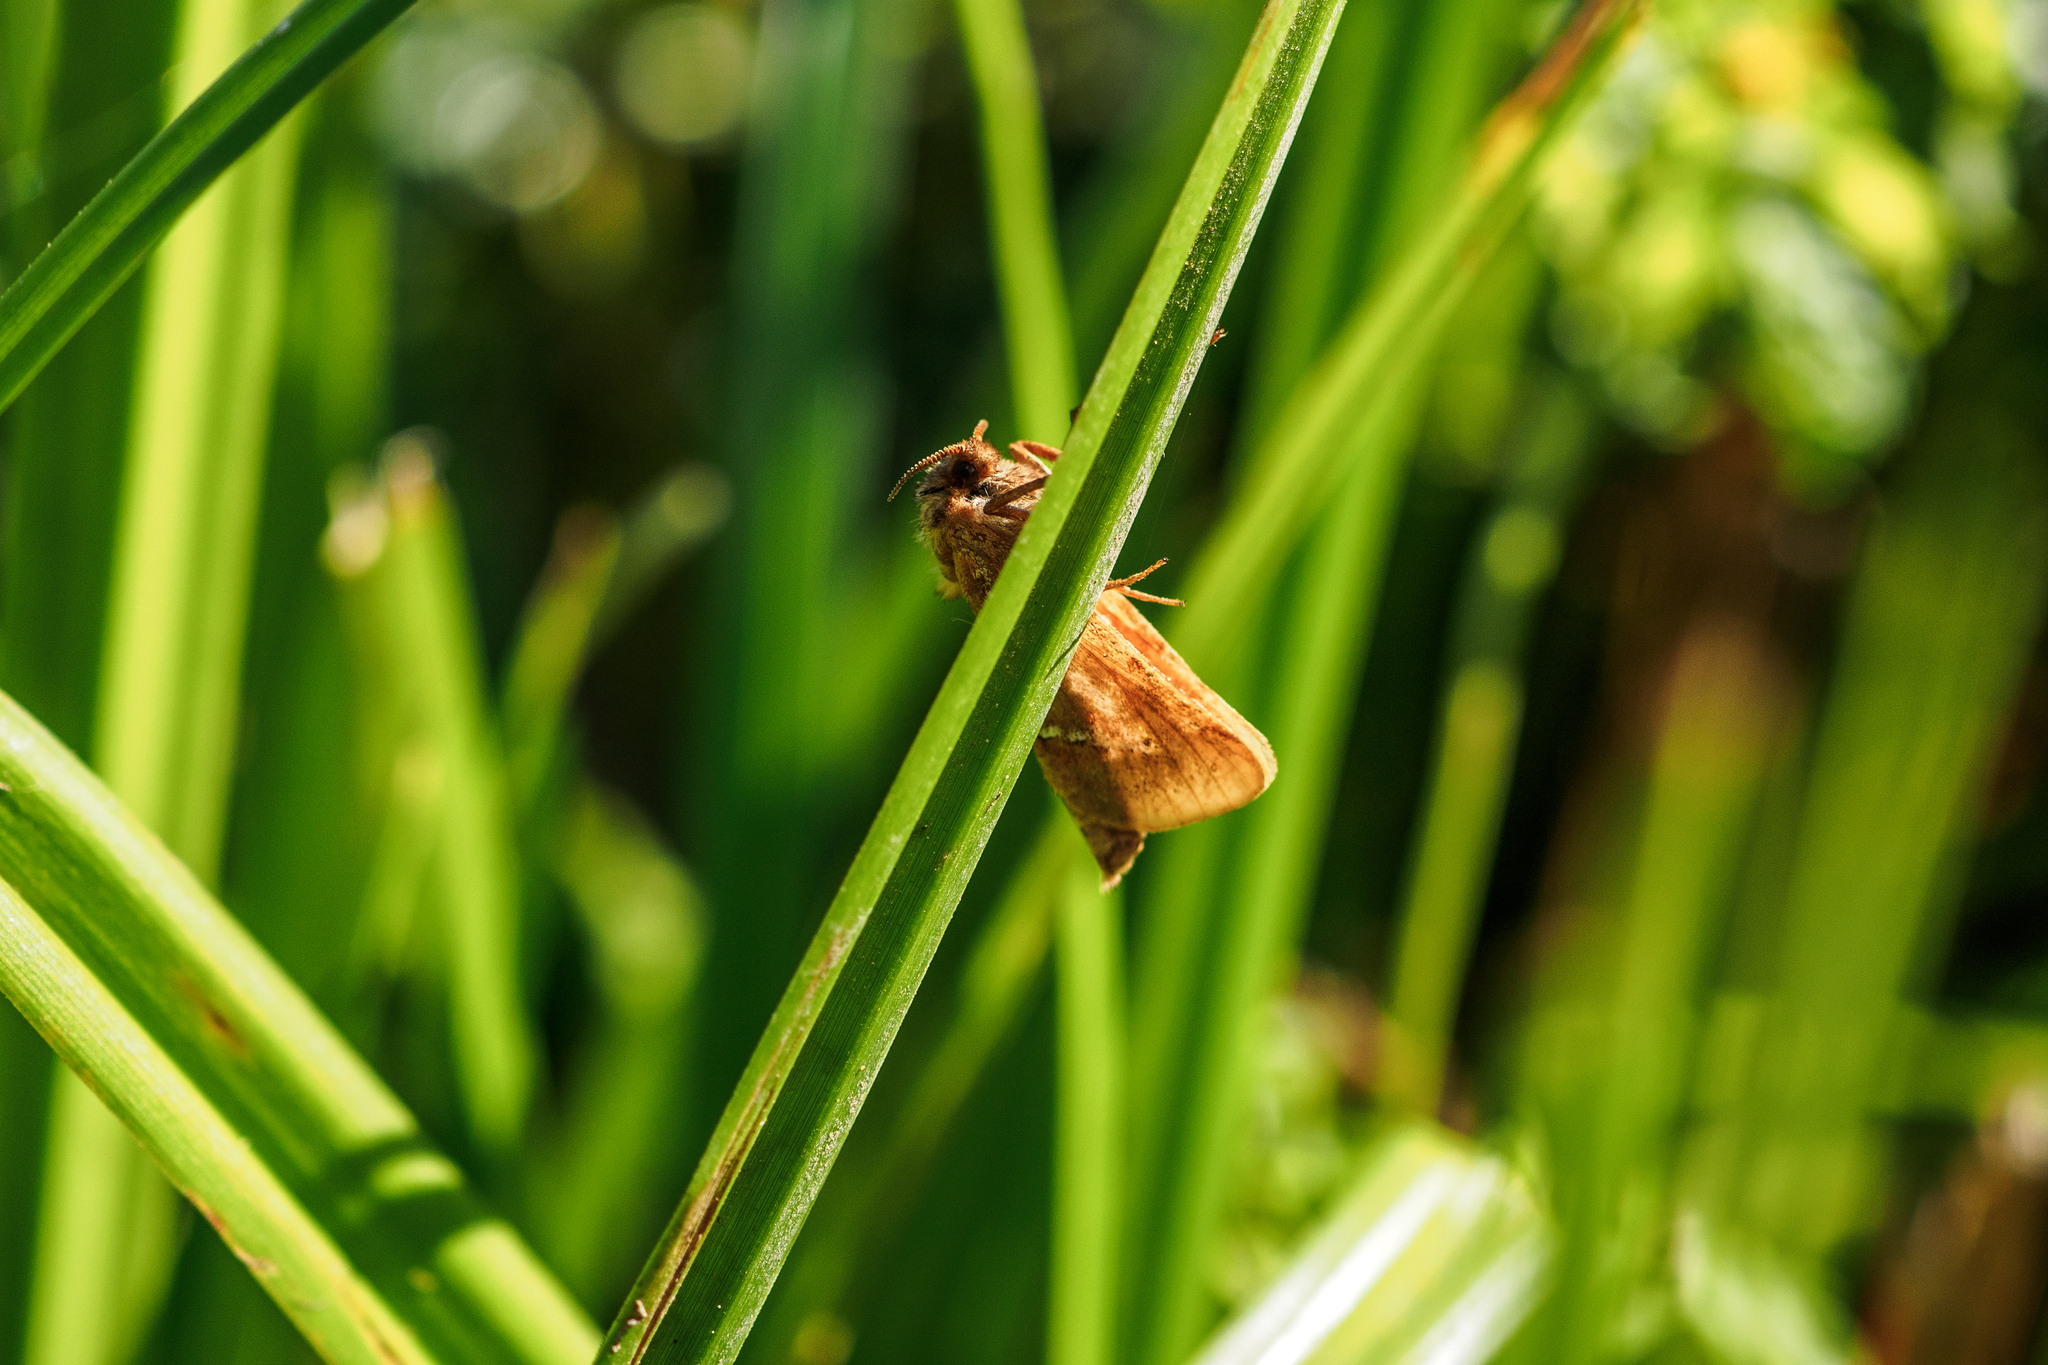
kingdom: Animalia
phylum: Arthropoda
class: Insecta
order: Lepidoptera
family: Hepialidae
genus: Triodia
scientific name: Triodia sylvina
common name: Orange swift
